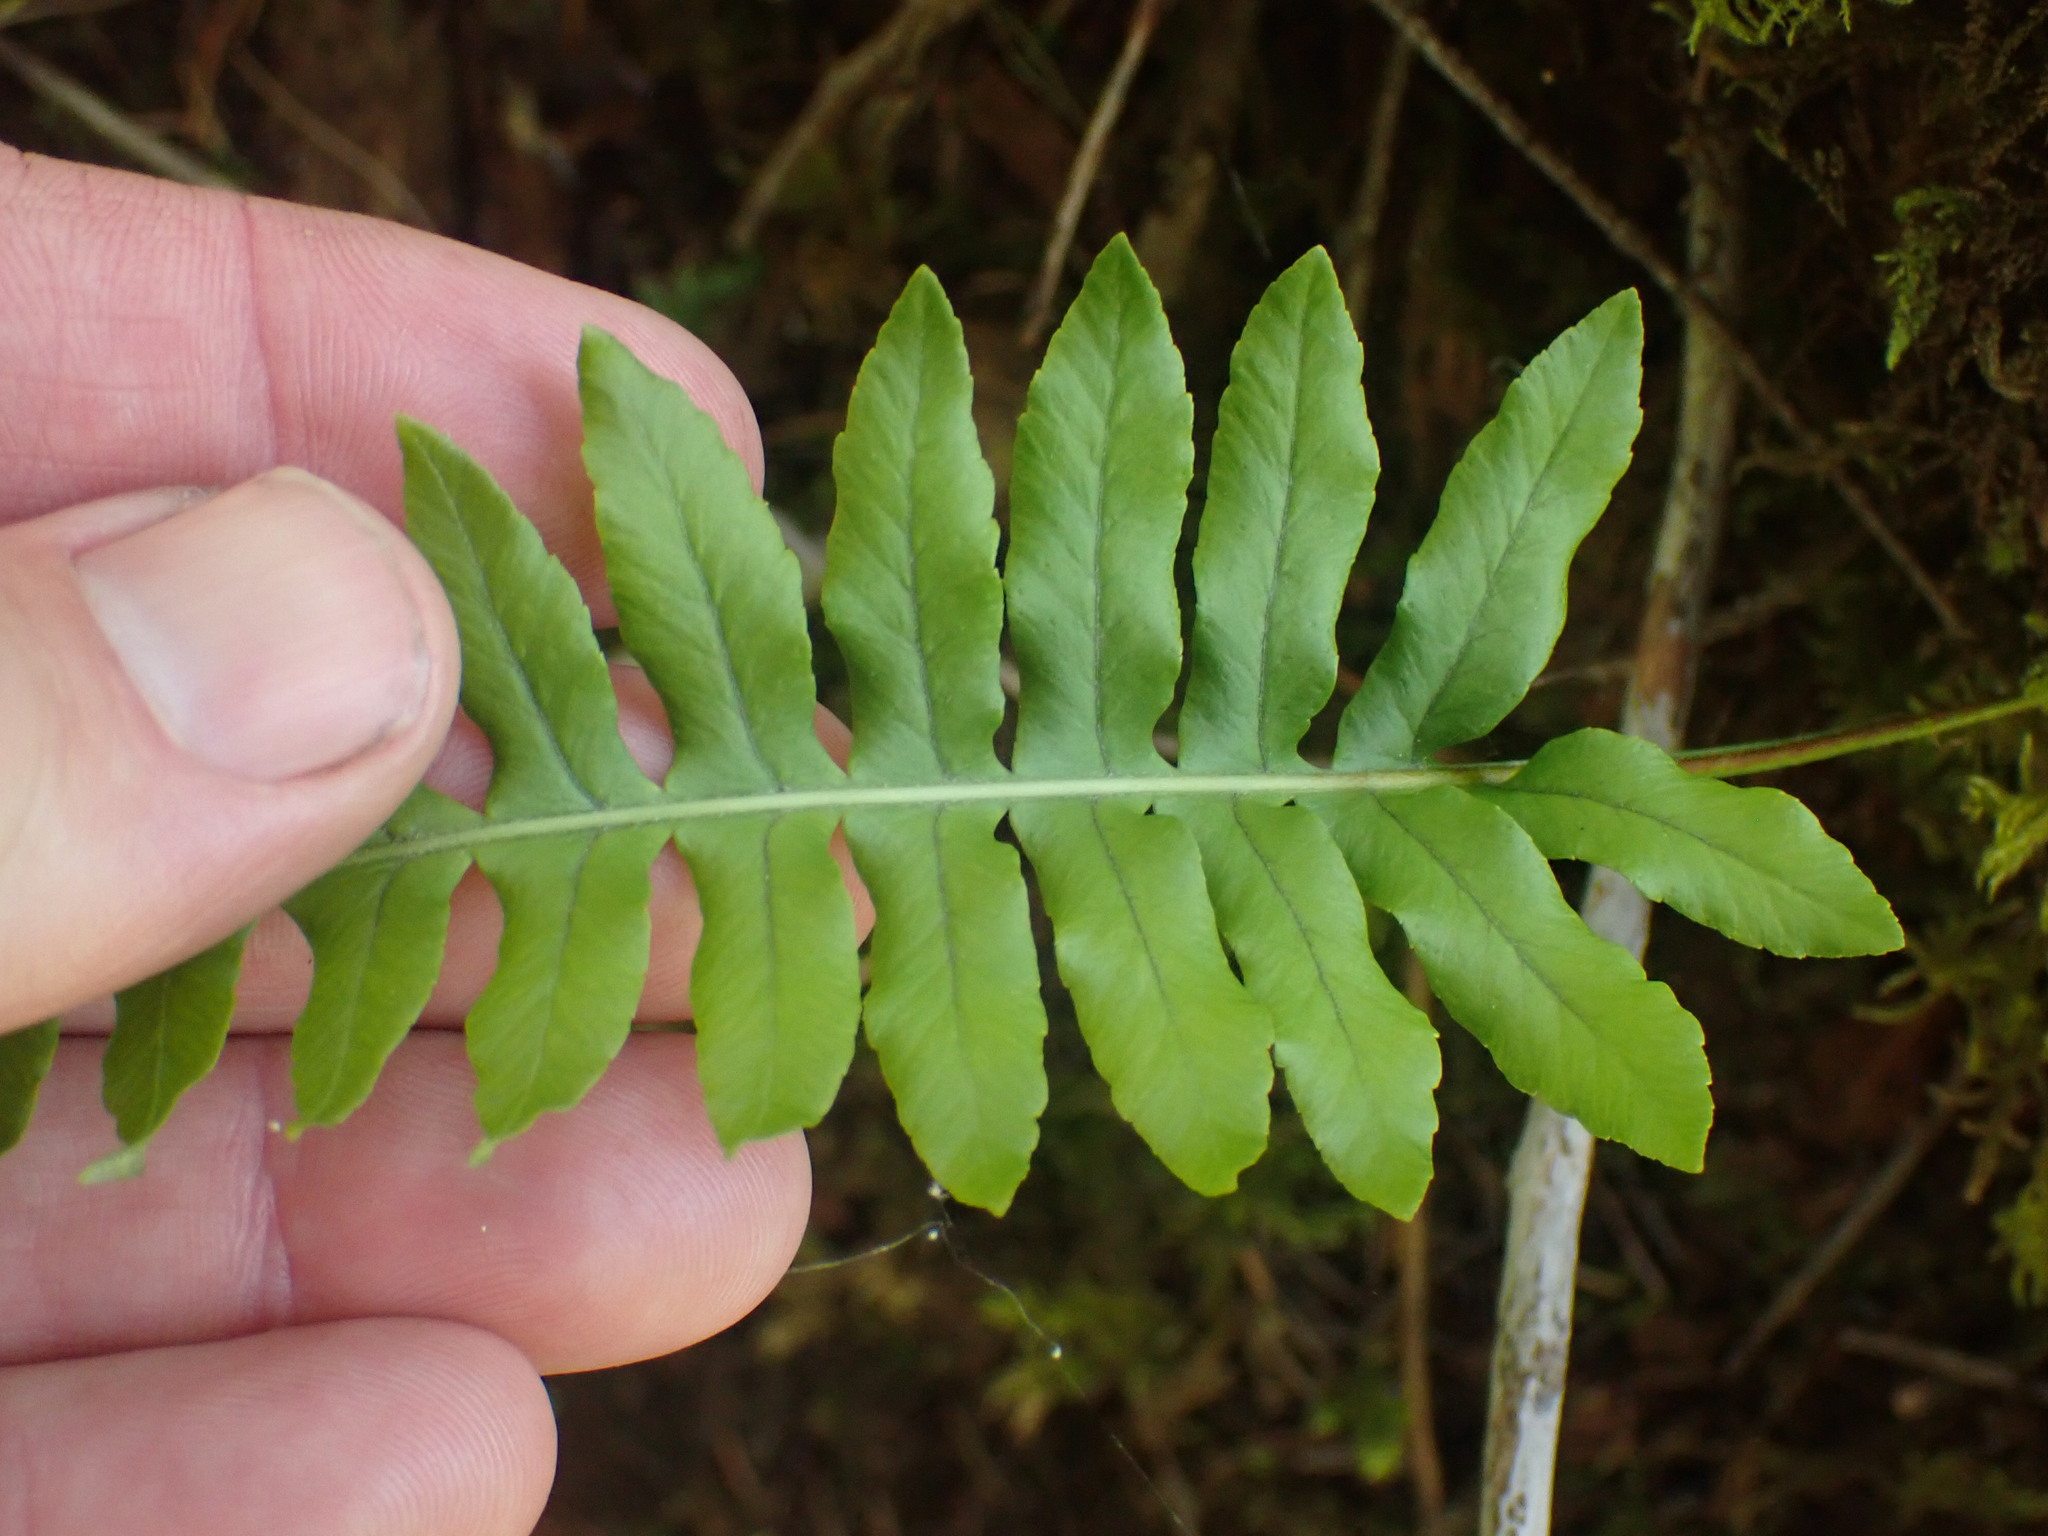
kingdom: Plantae
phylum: Tracheophyta
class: Polypodiopsida
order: Polypodiales
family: Polypodiaceae
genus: Polypodium
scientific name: Polypodium glycyrrhiza
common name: Licorice fern
